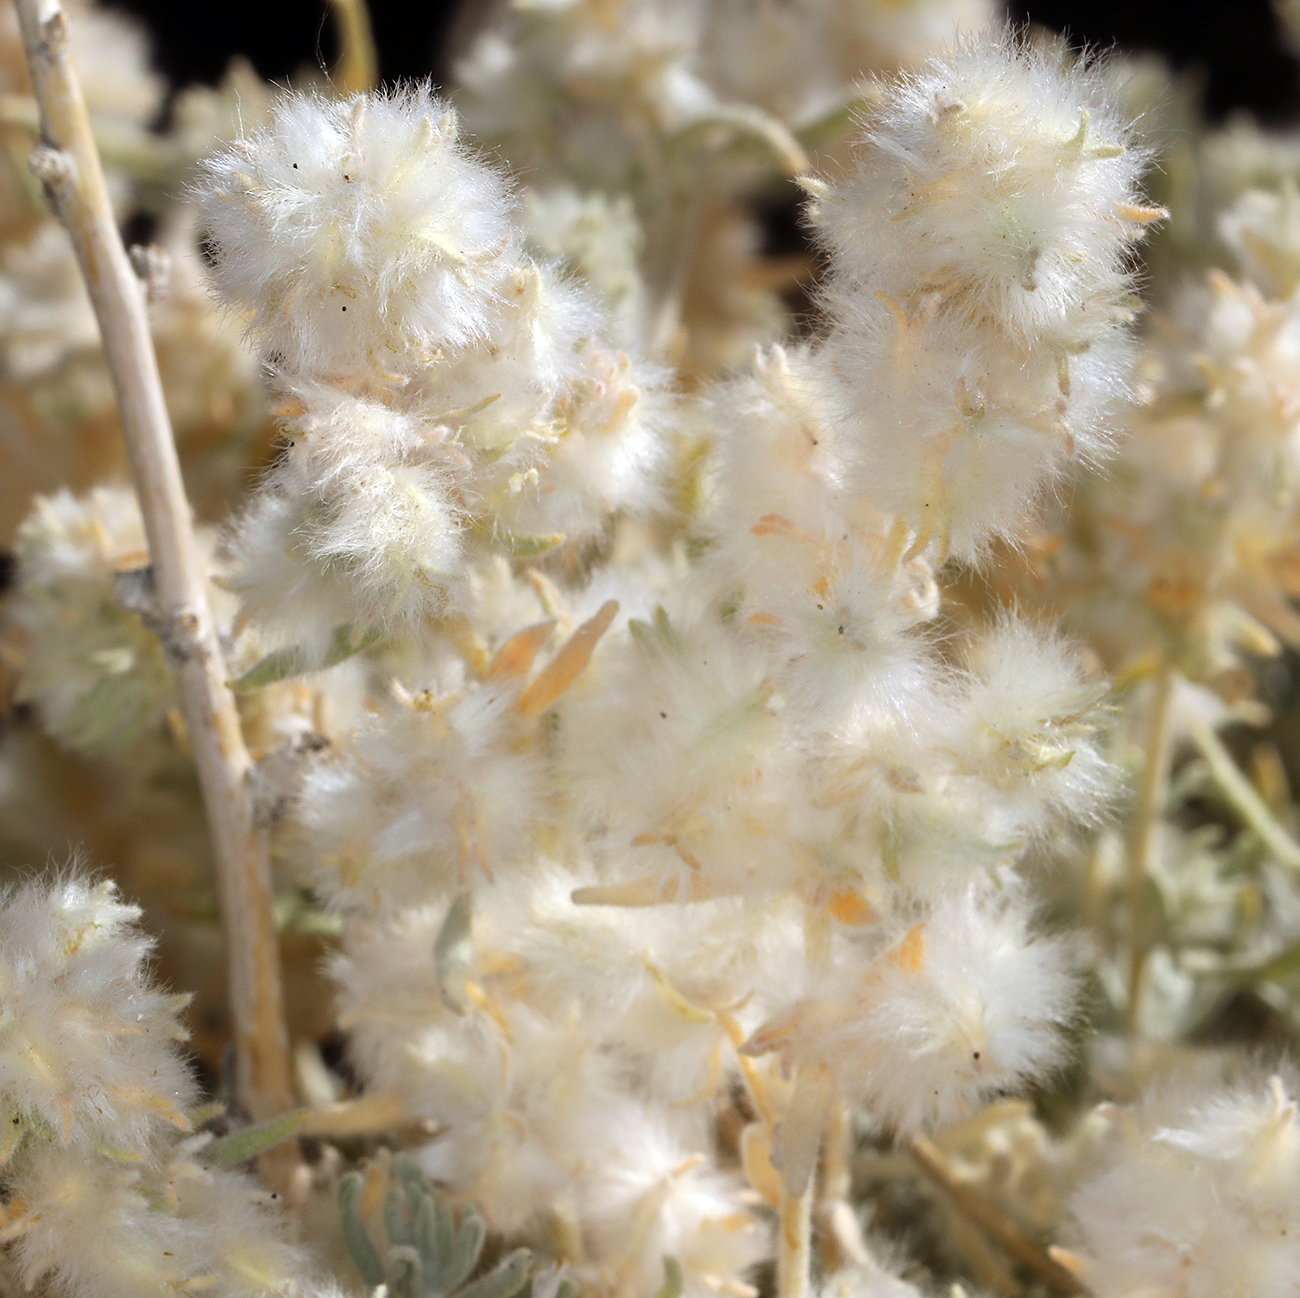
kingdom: Plantae
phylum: Tracheophyta
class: Magnoliopsida
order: Caryophyllales
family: Amaranthaceae
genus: Krascheninnikovia
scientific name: Krascheninnikovia lanata
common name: Winterfat
